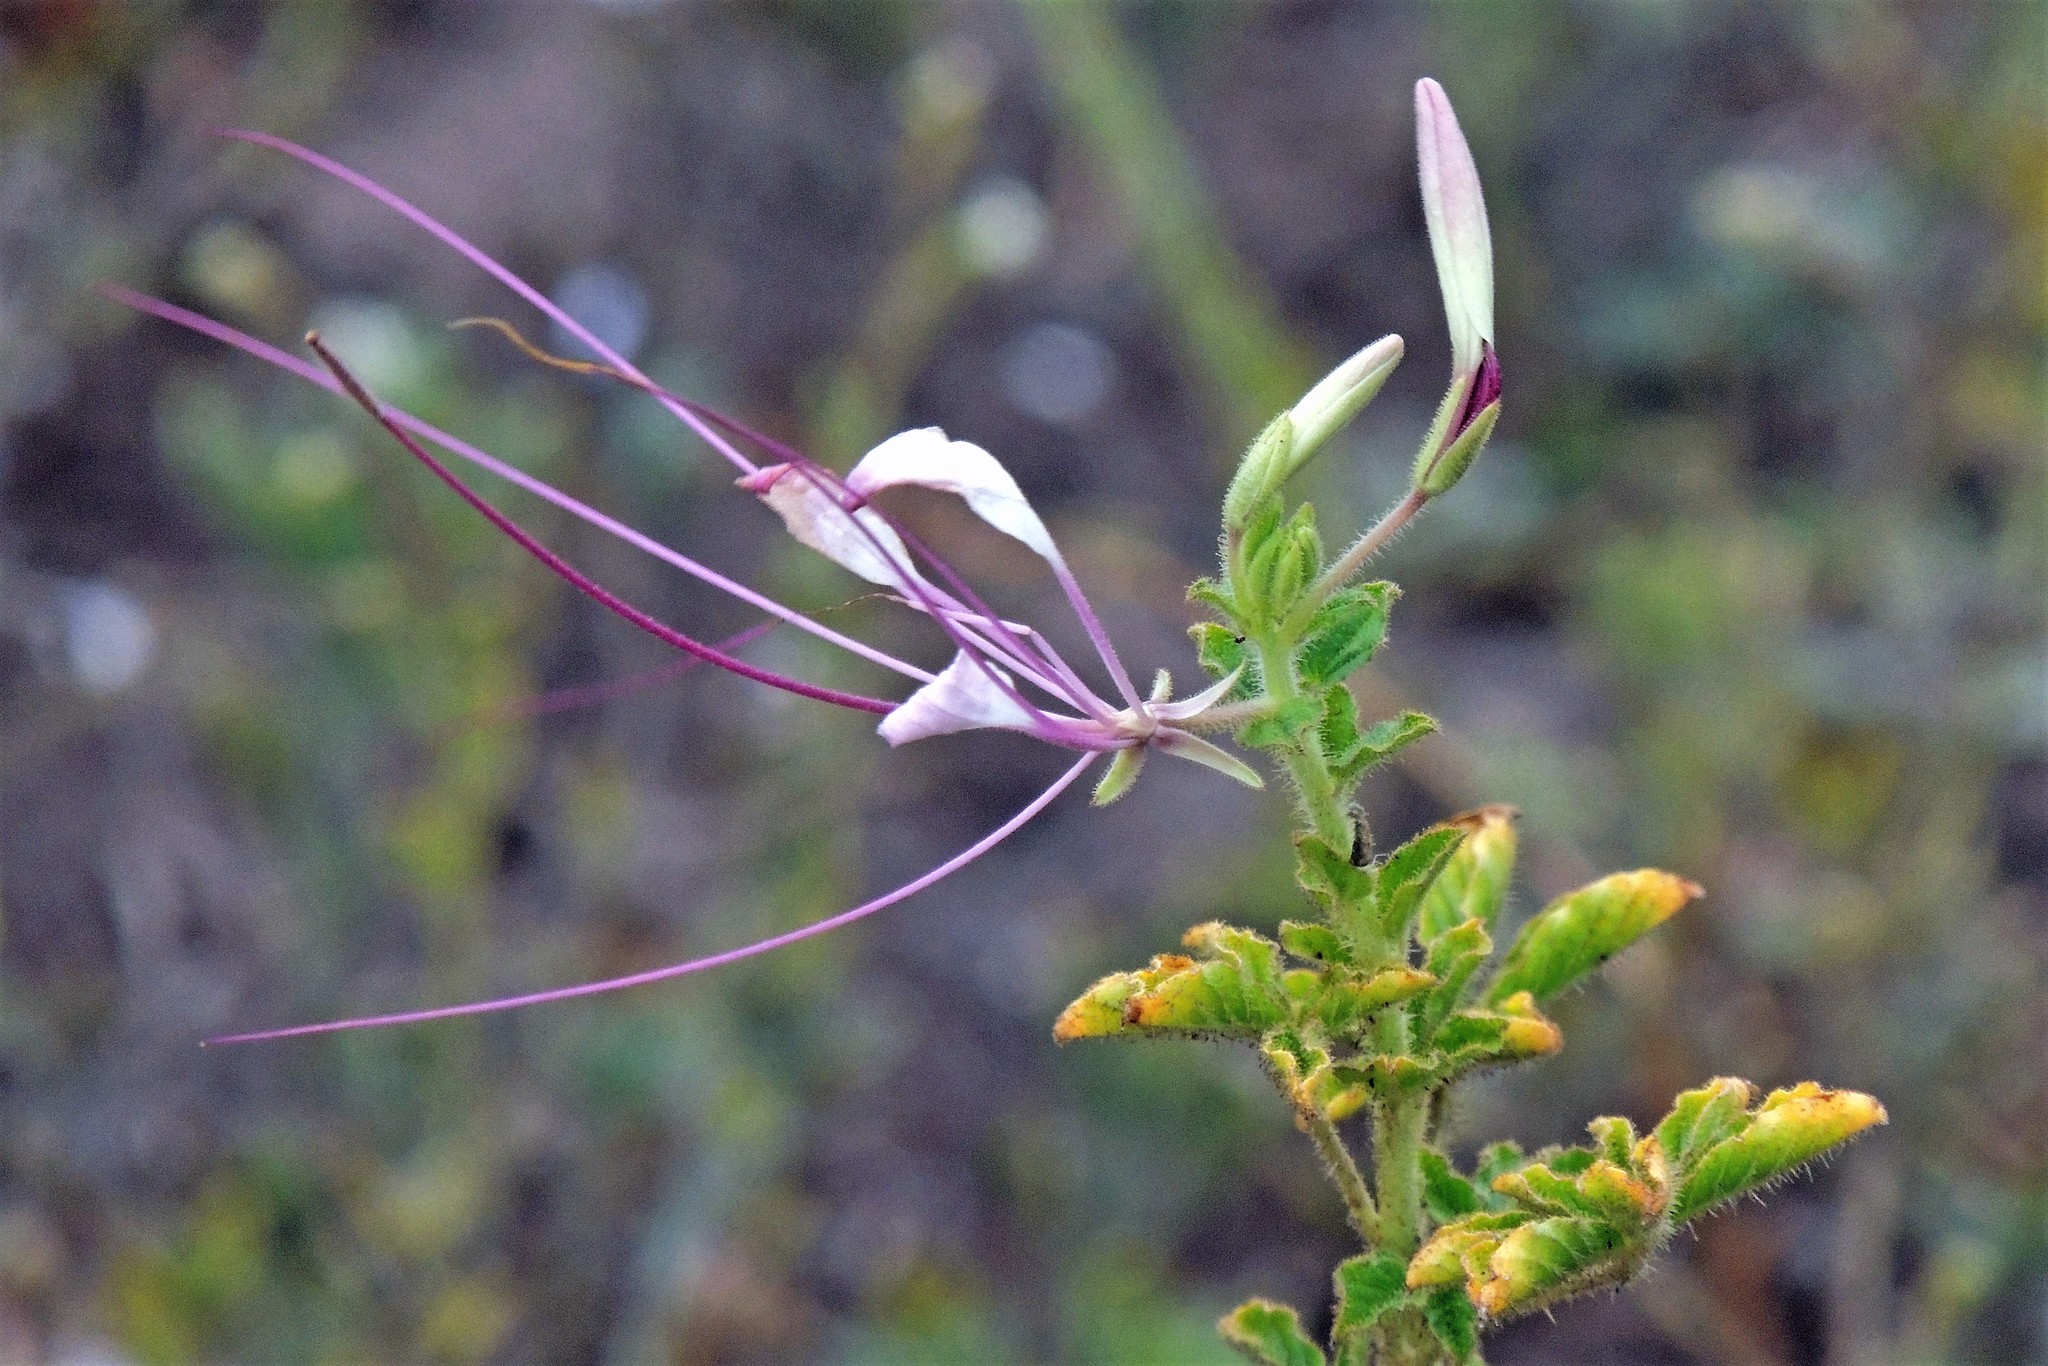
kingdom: Plantae
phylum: Tracheophyta
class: Magnoliopsida
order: Brassicales
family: Cleomaceae
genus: Tarenaya
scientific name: Tarenaya houtteana
